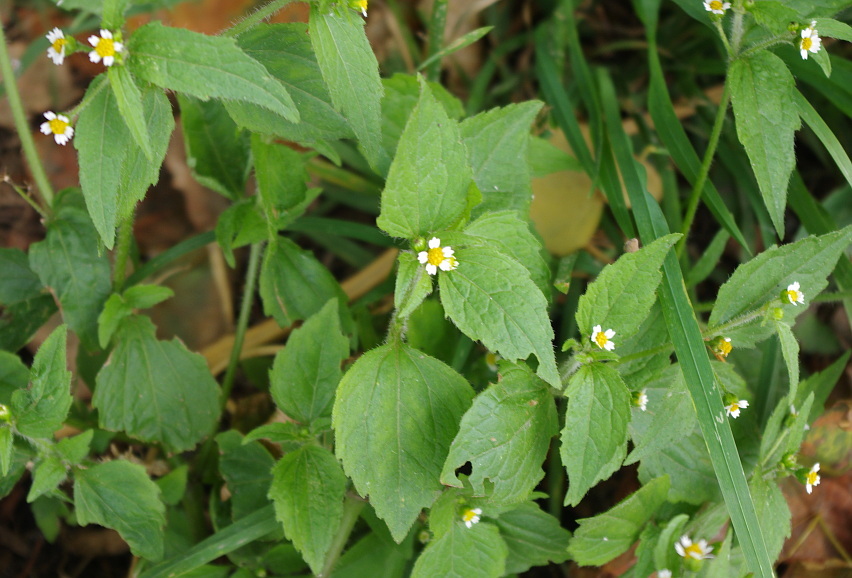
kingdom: Plantae
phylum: Tracheophyta
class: Magnoliopsida
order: Asterales
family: Asteraceae
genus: Galinsoga
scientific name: Galinsoga quadriradiata
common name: Shaggy soldier
